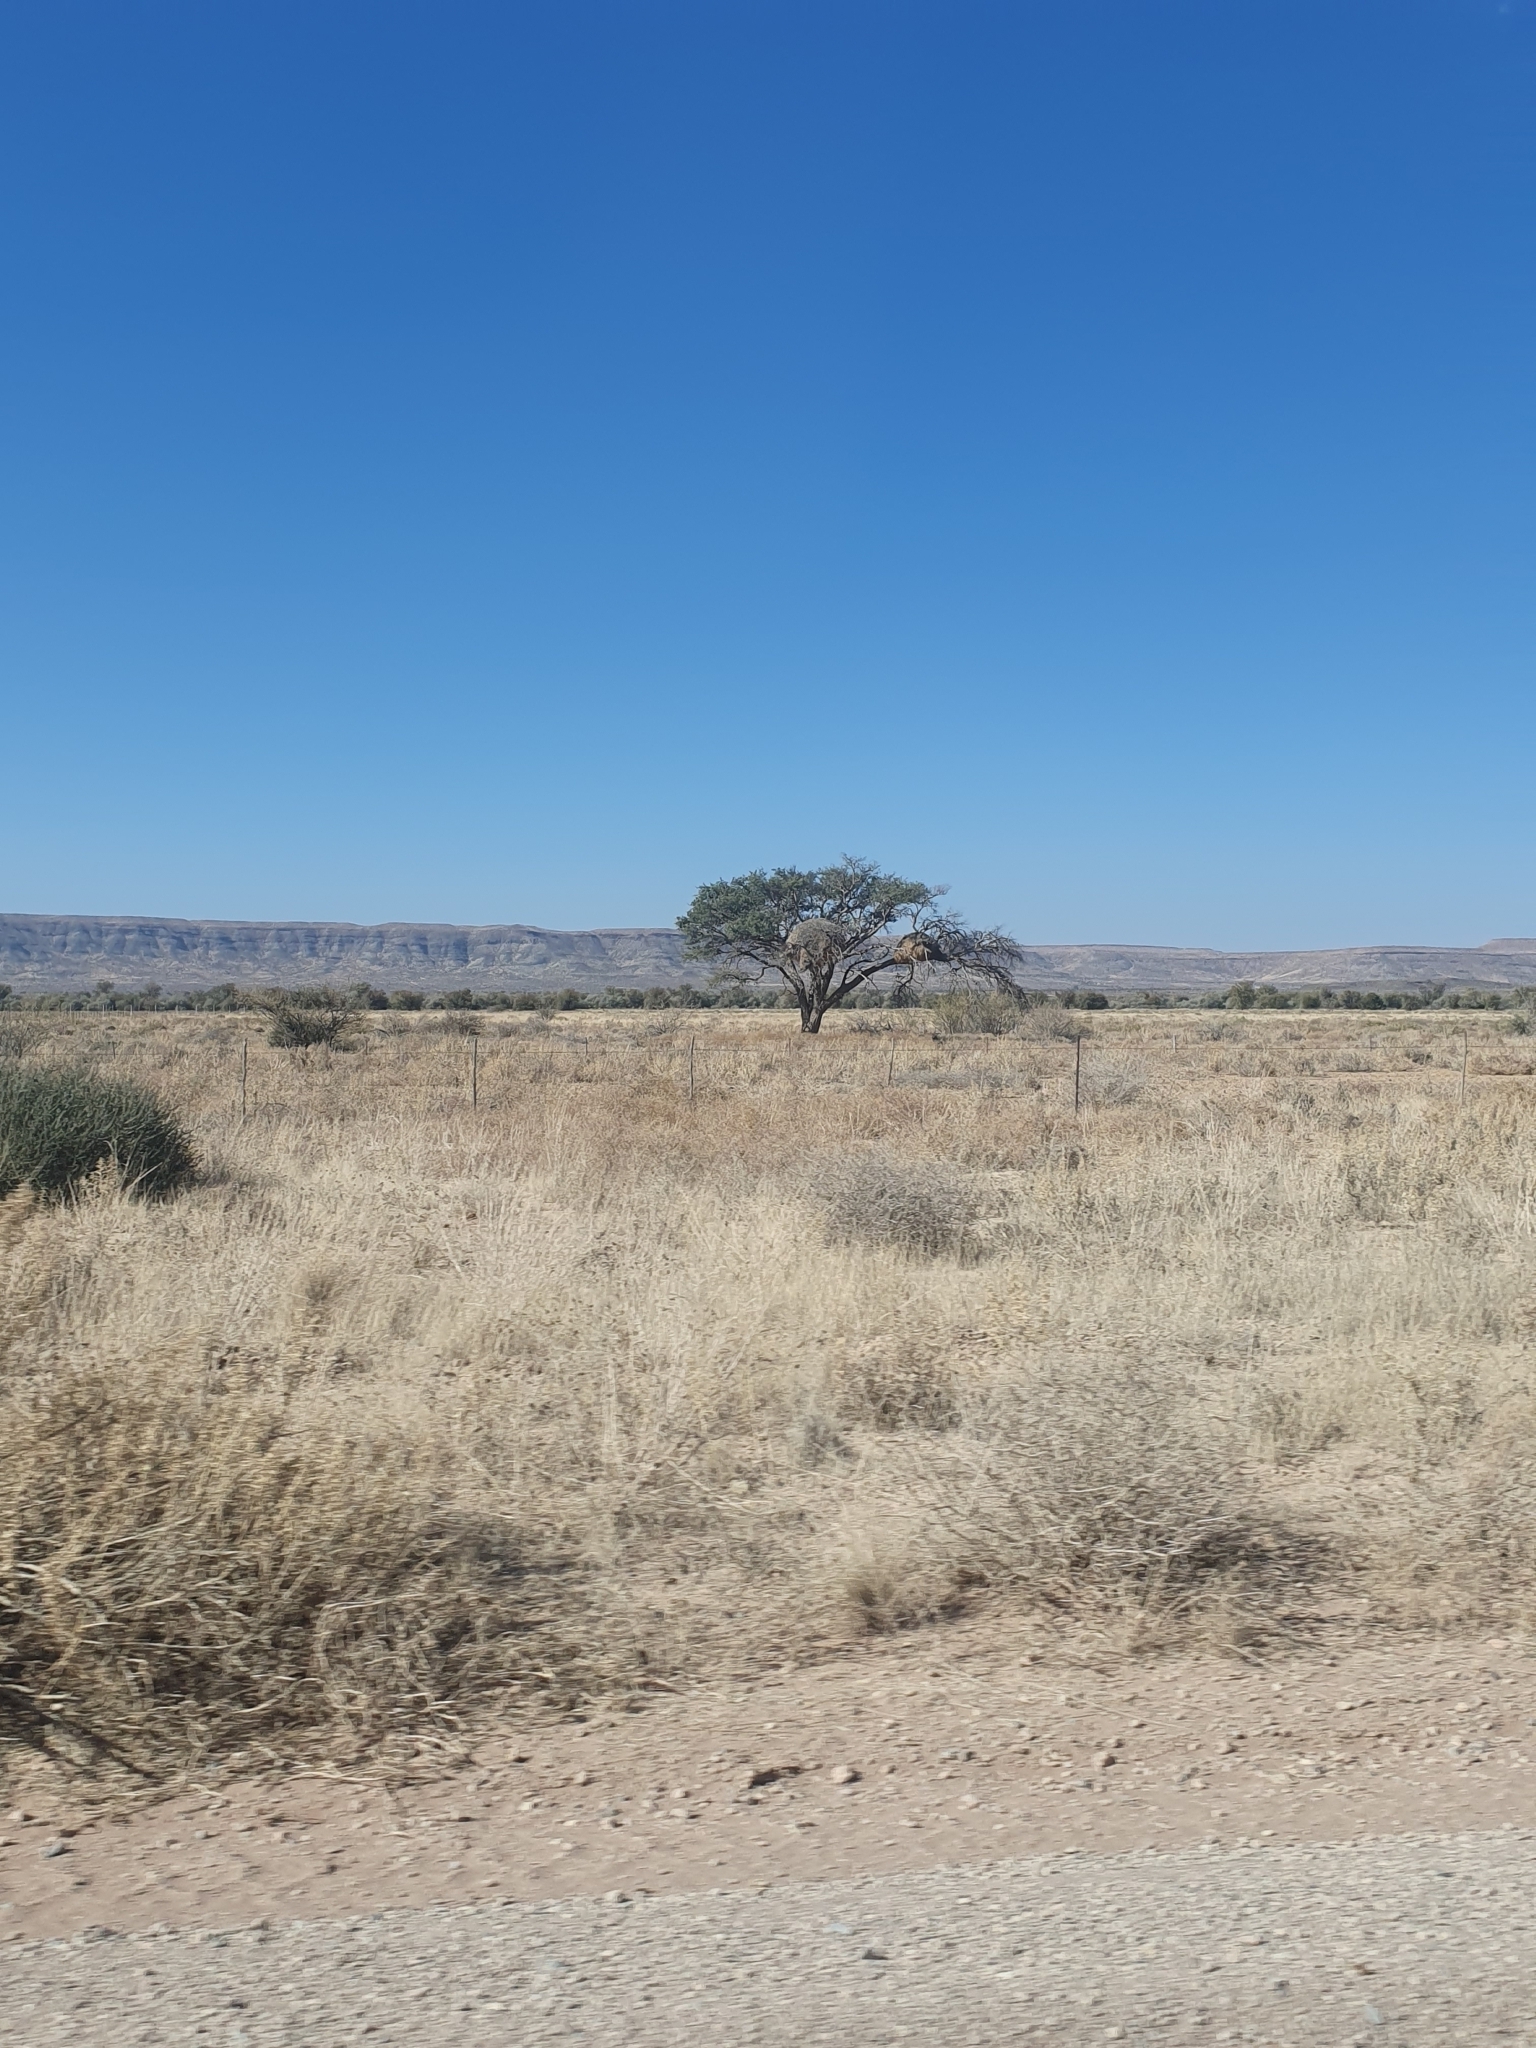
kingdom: Animalia
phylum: Chordata
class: Aves
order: Passeriformes
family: Passeridae
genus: Philetairus
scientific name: Philetairus socius
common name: Sociable weaver
